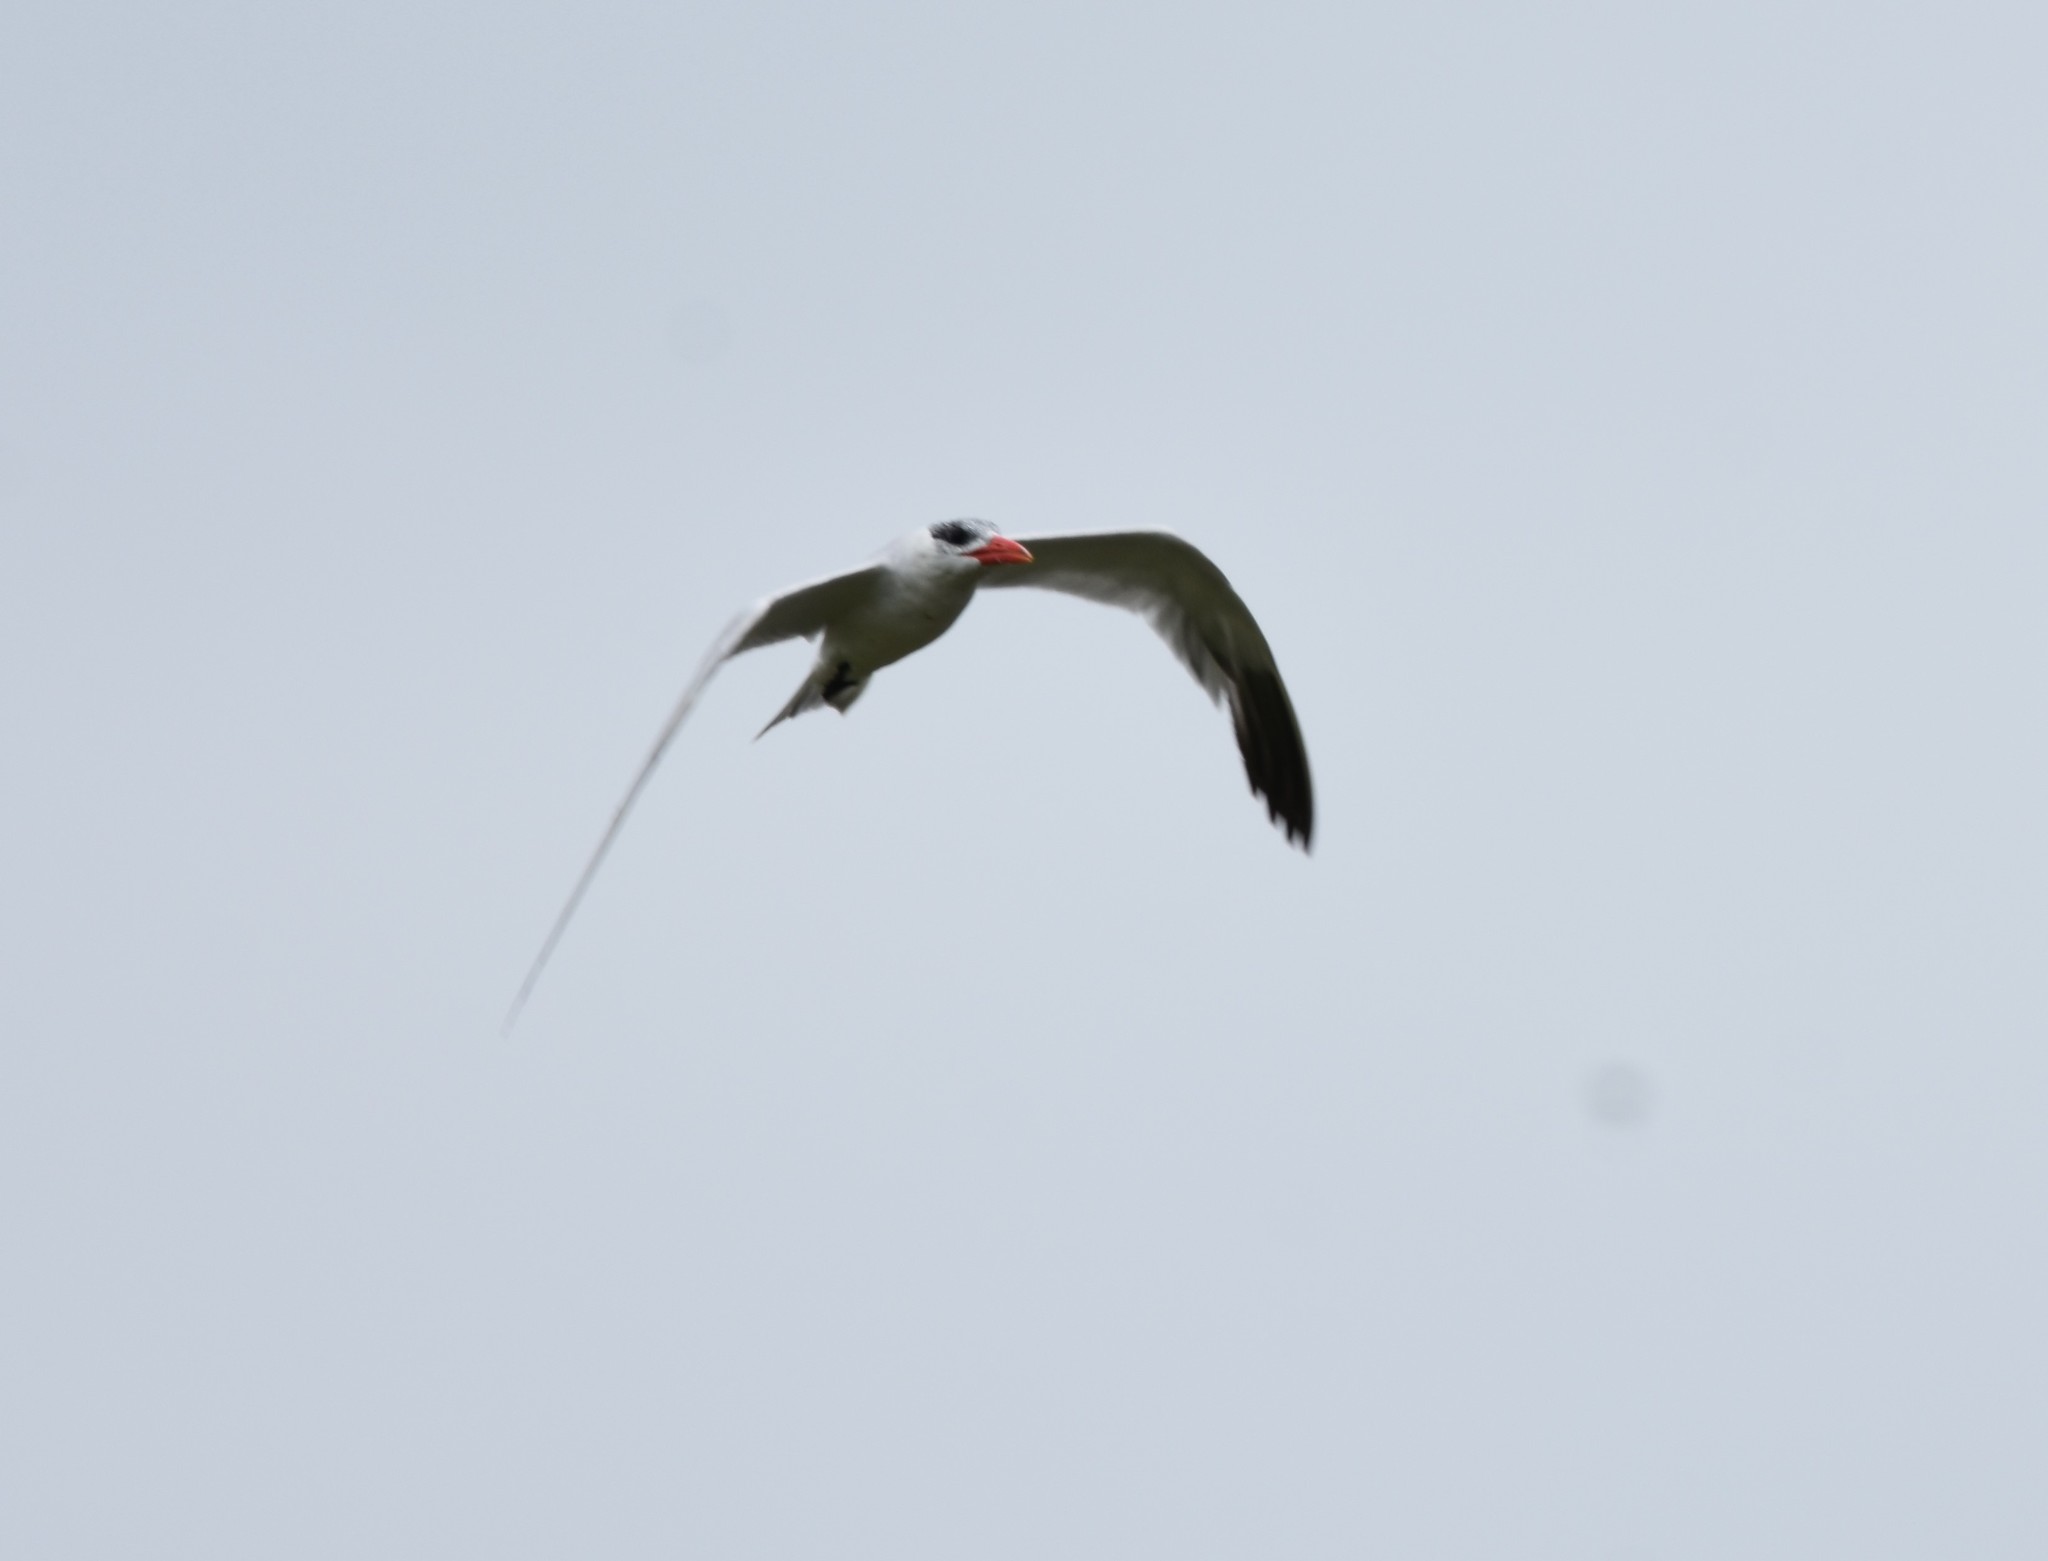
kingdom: Animalia
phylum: Chordata
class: Aves
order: Charadriiformes
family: Laridae
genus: Hydroprogne
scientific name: Hydroprogne caspia
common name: Caspian tern
